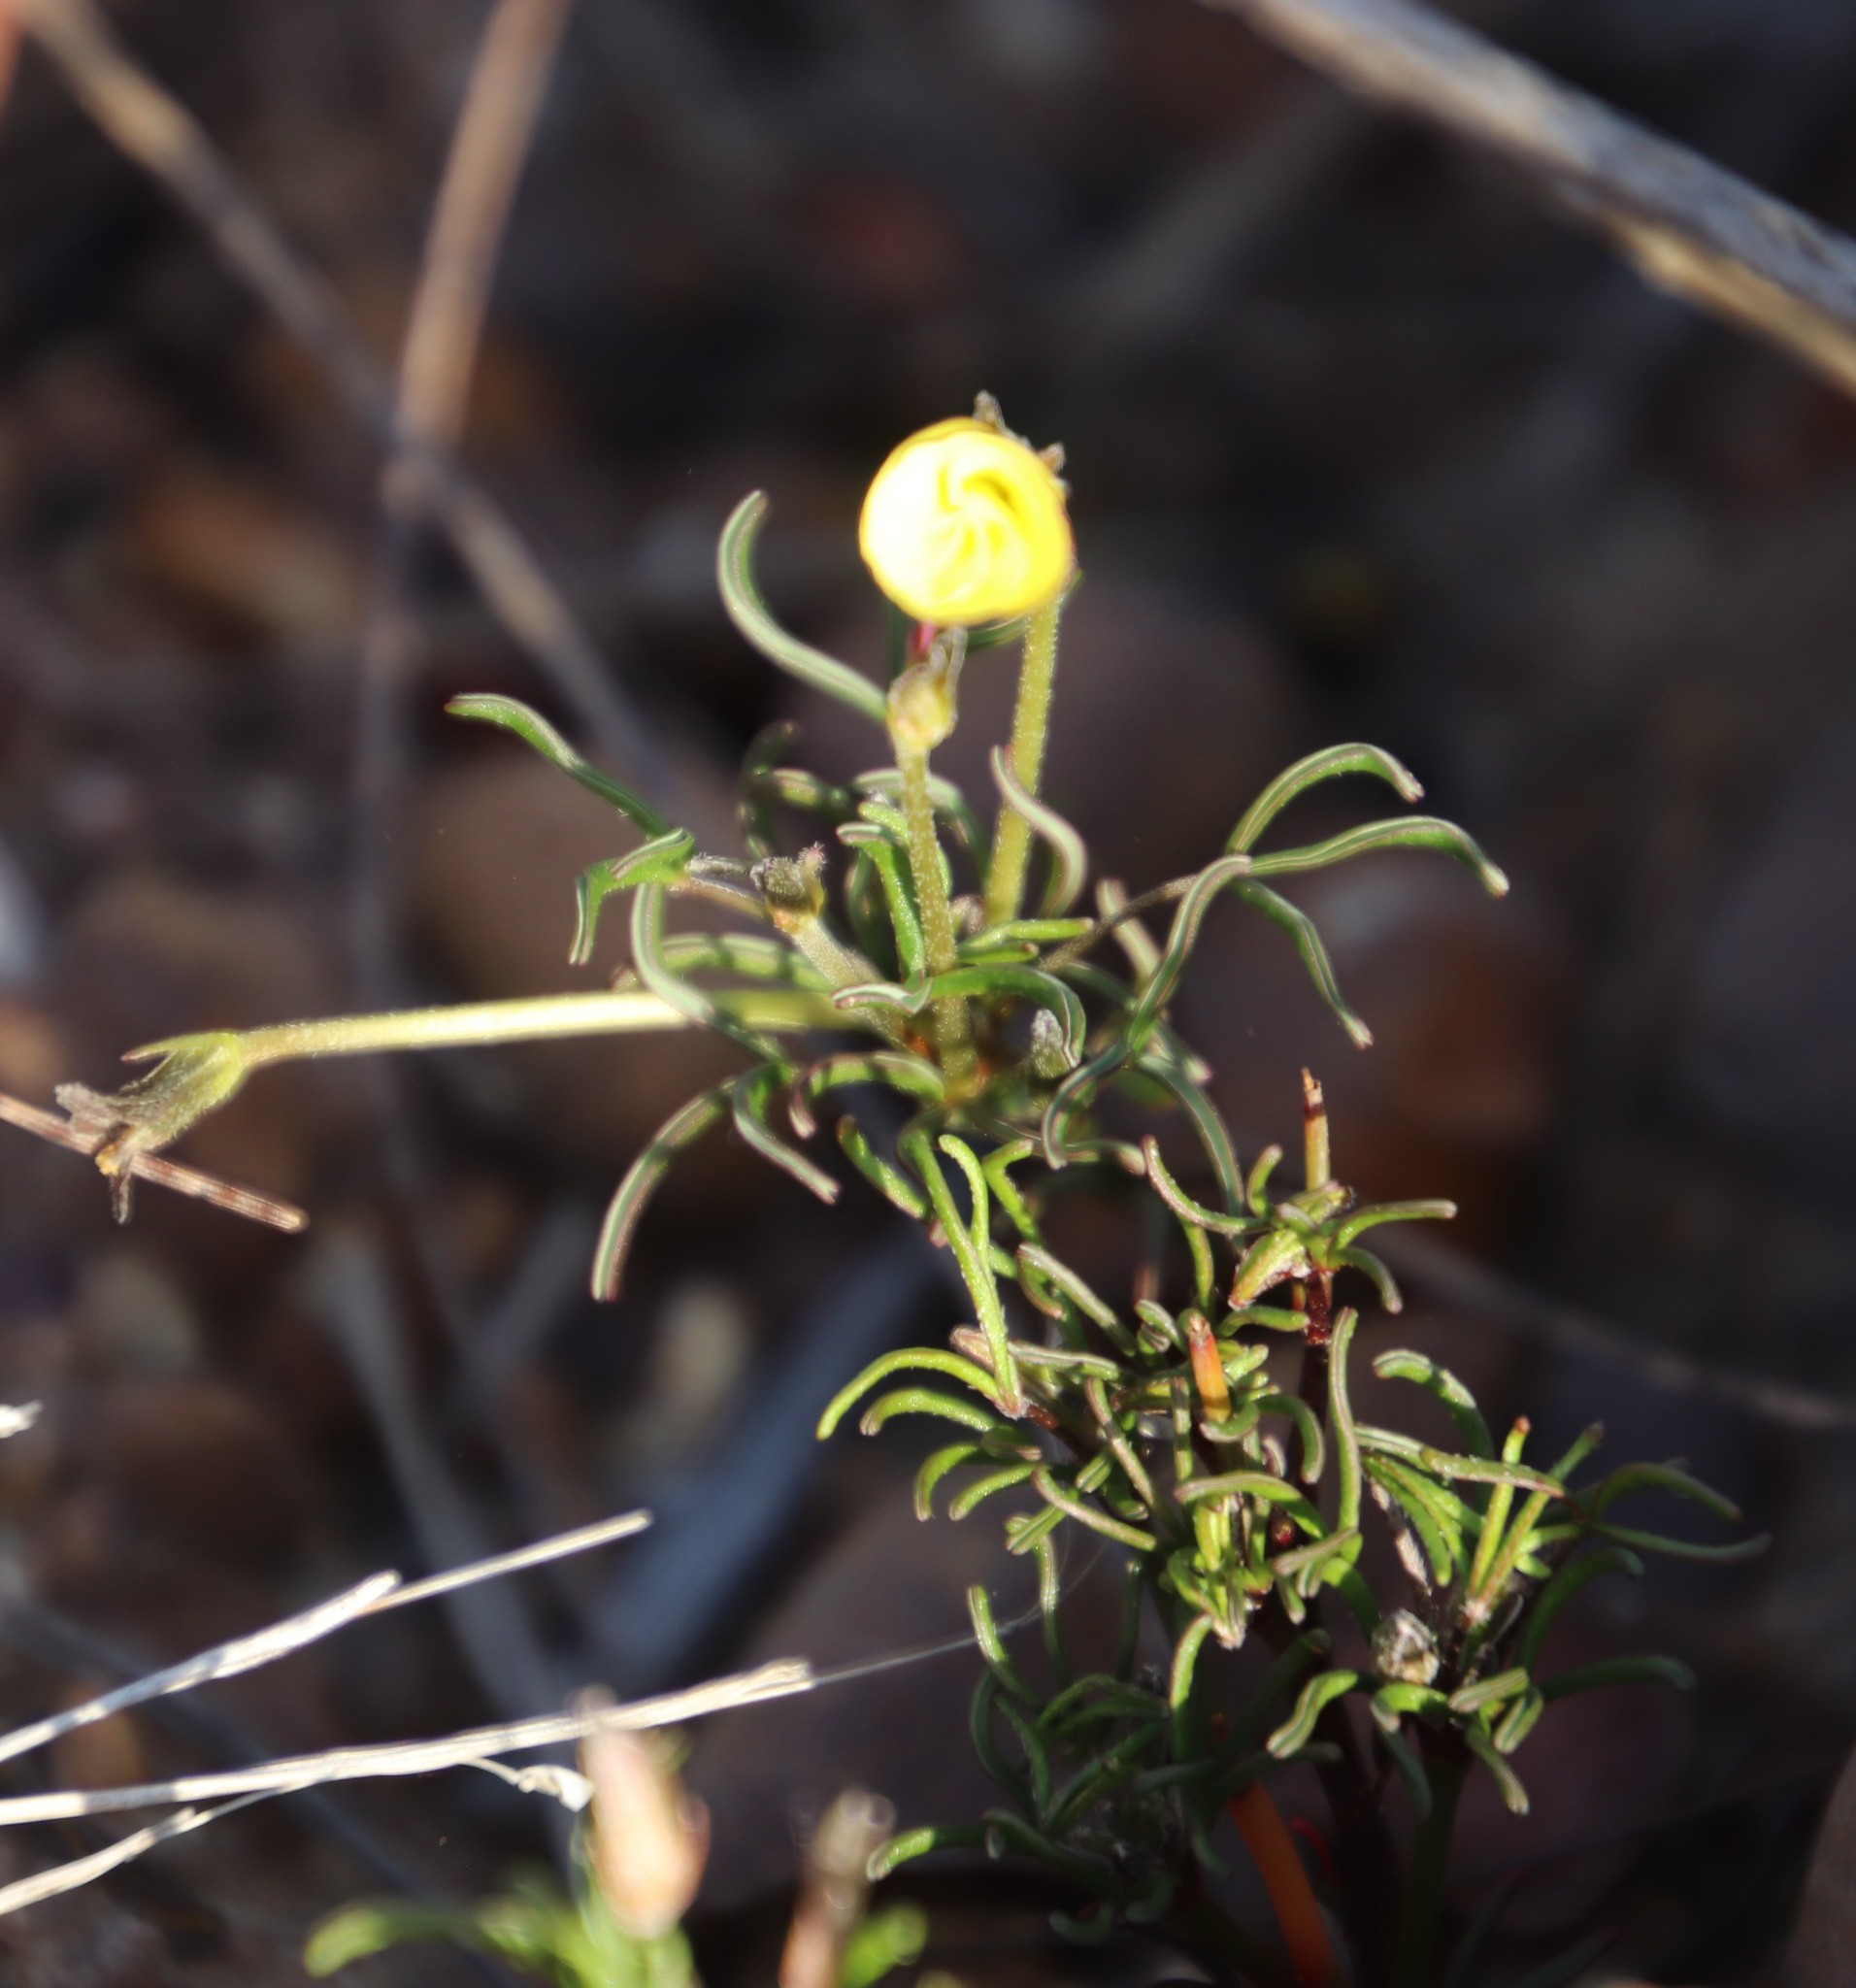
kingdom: Plantae
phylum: Tracheophyta
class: Magnoliopsida
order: Oxalidales
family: Oxalidaceae
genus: Oxalis
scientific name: Oxalis versicolor
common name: Peppermint rock oxalis
